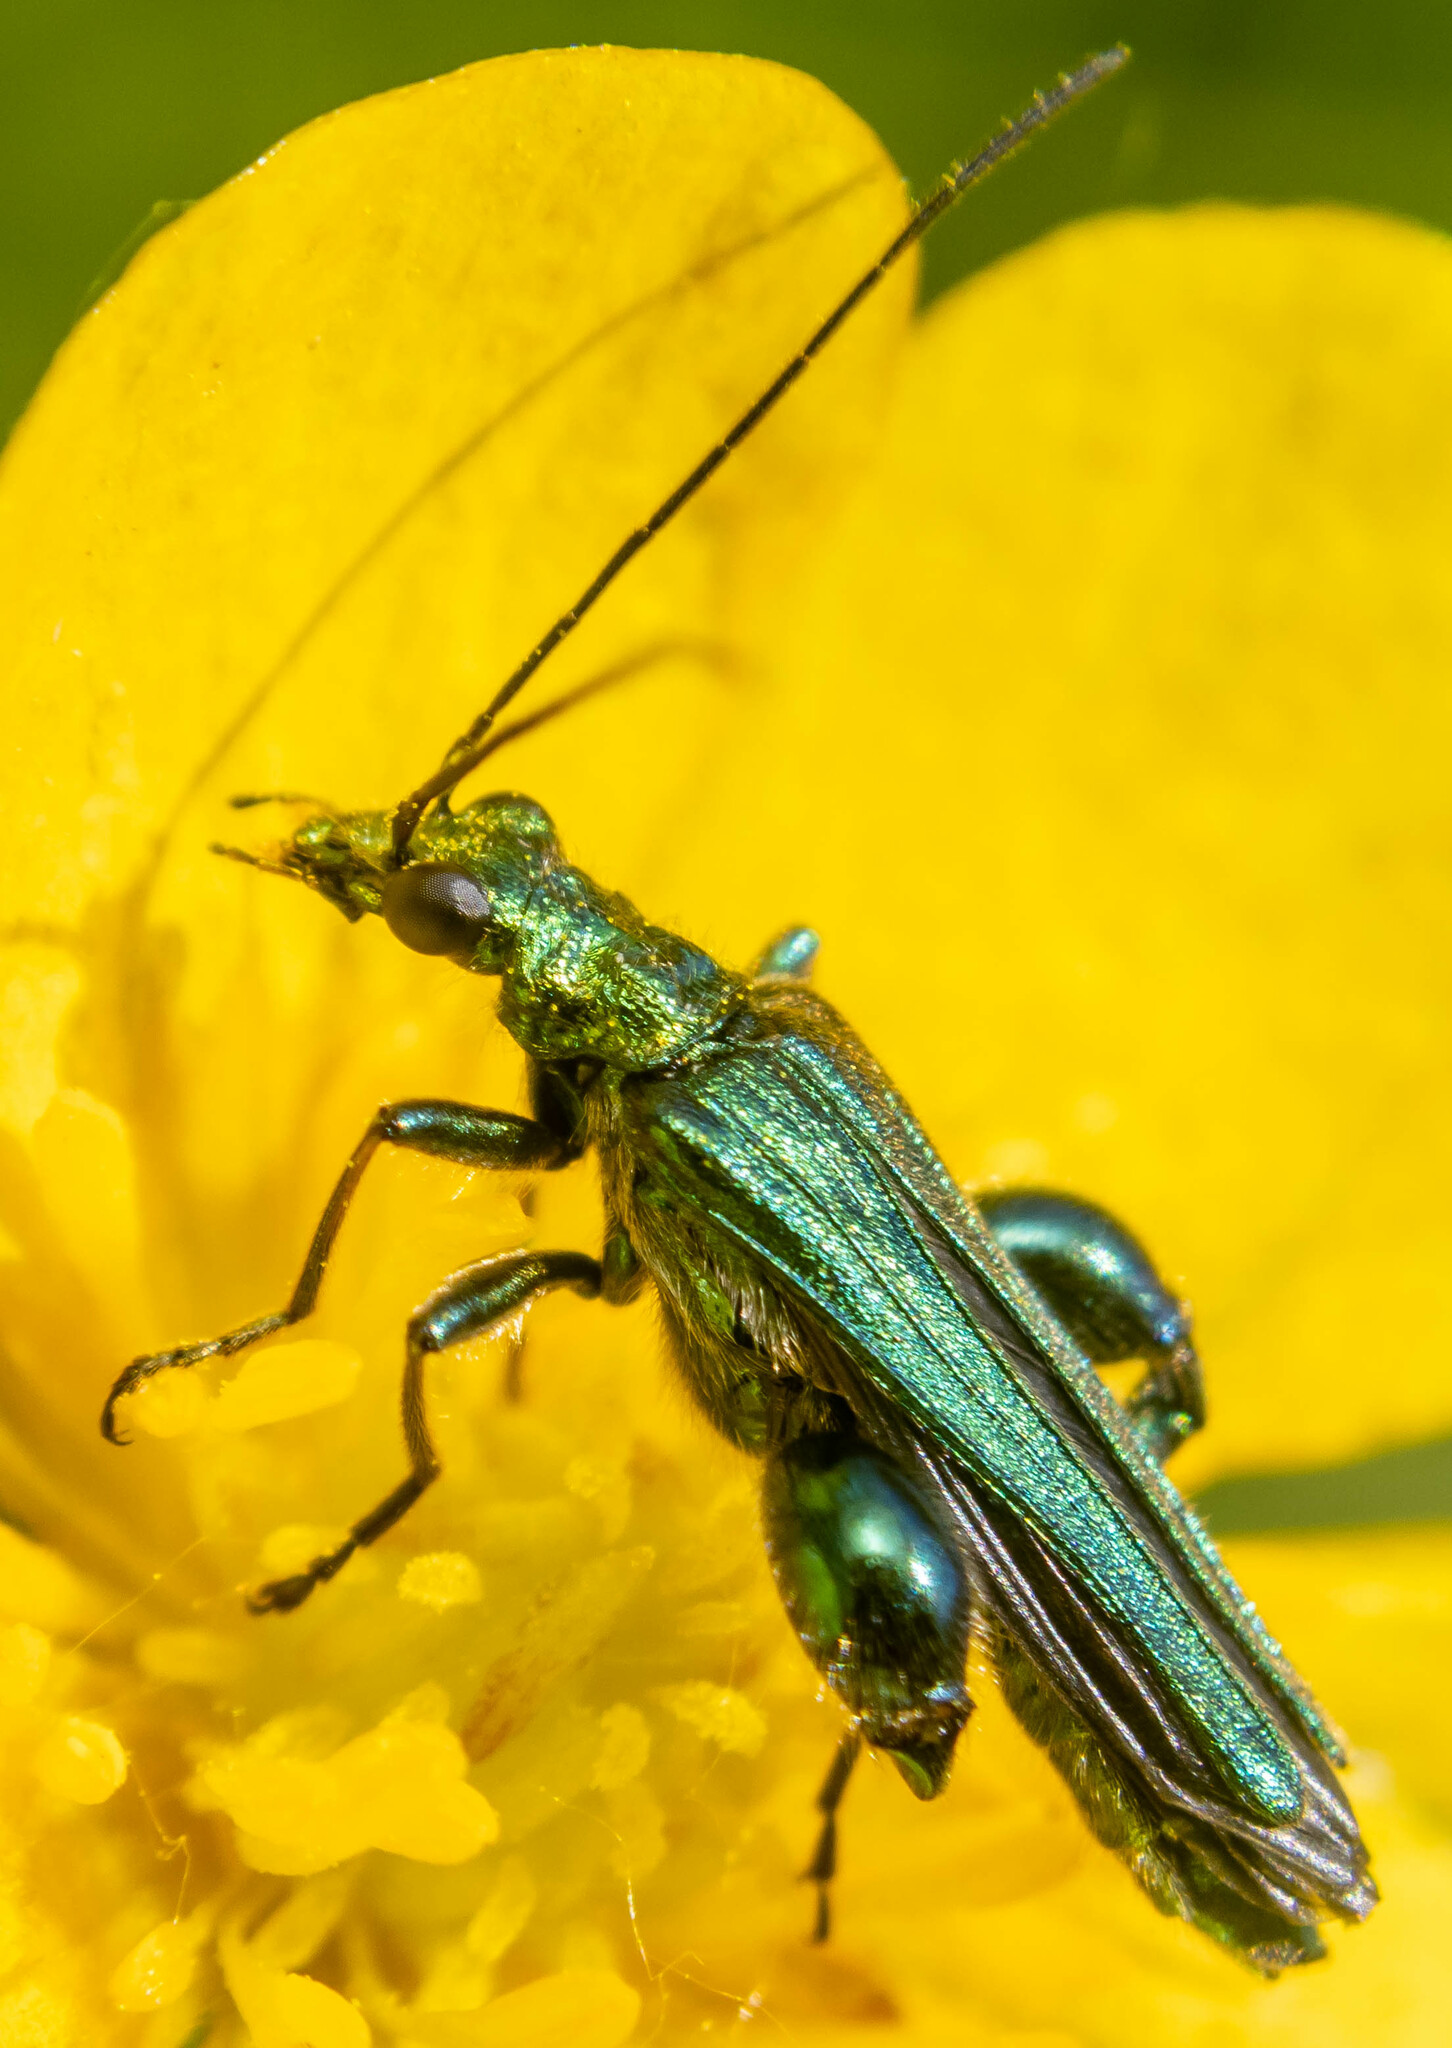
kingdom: Animalia
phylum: Arthropoda
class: Insecta
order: Coleoptera
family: Oedemeridae
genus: Oedemera
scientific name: Oedemera nobilis
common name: Swollen-thighed beetle
